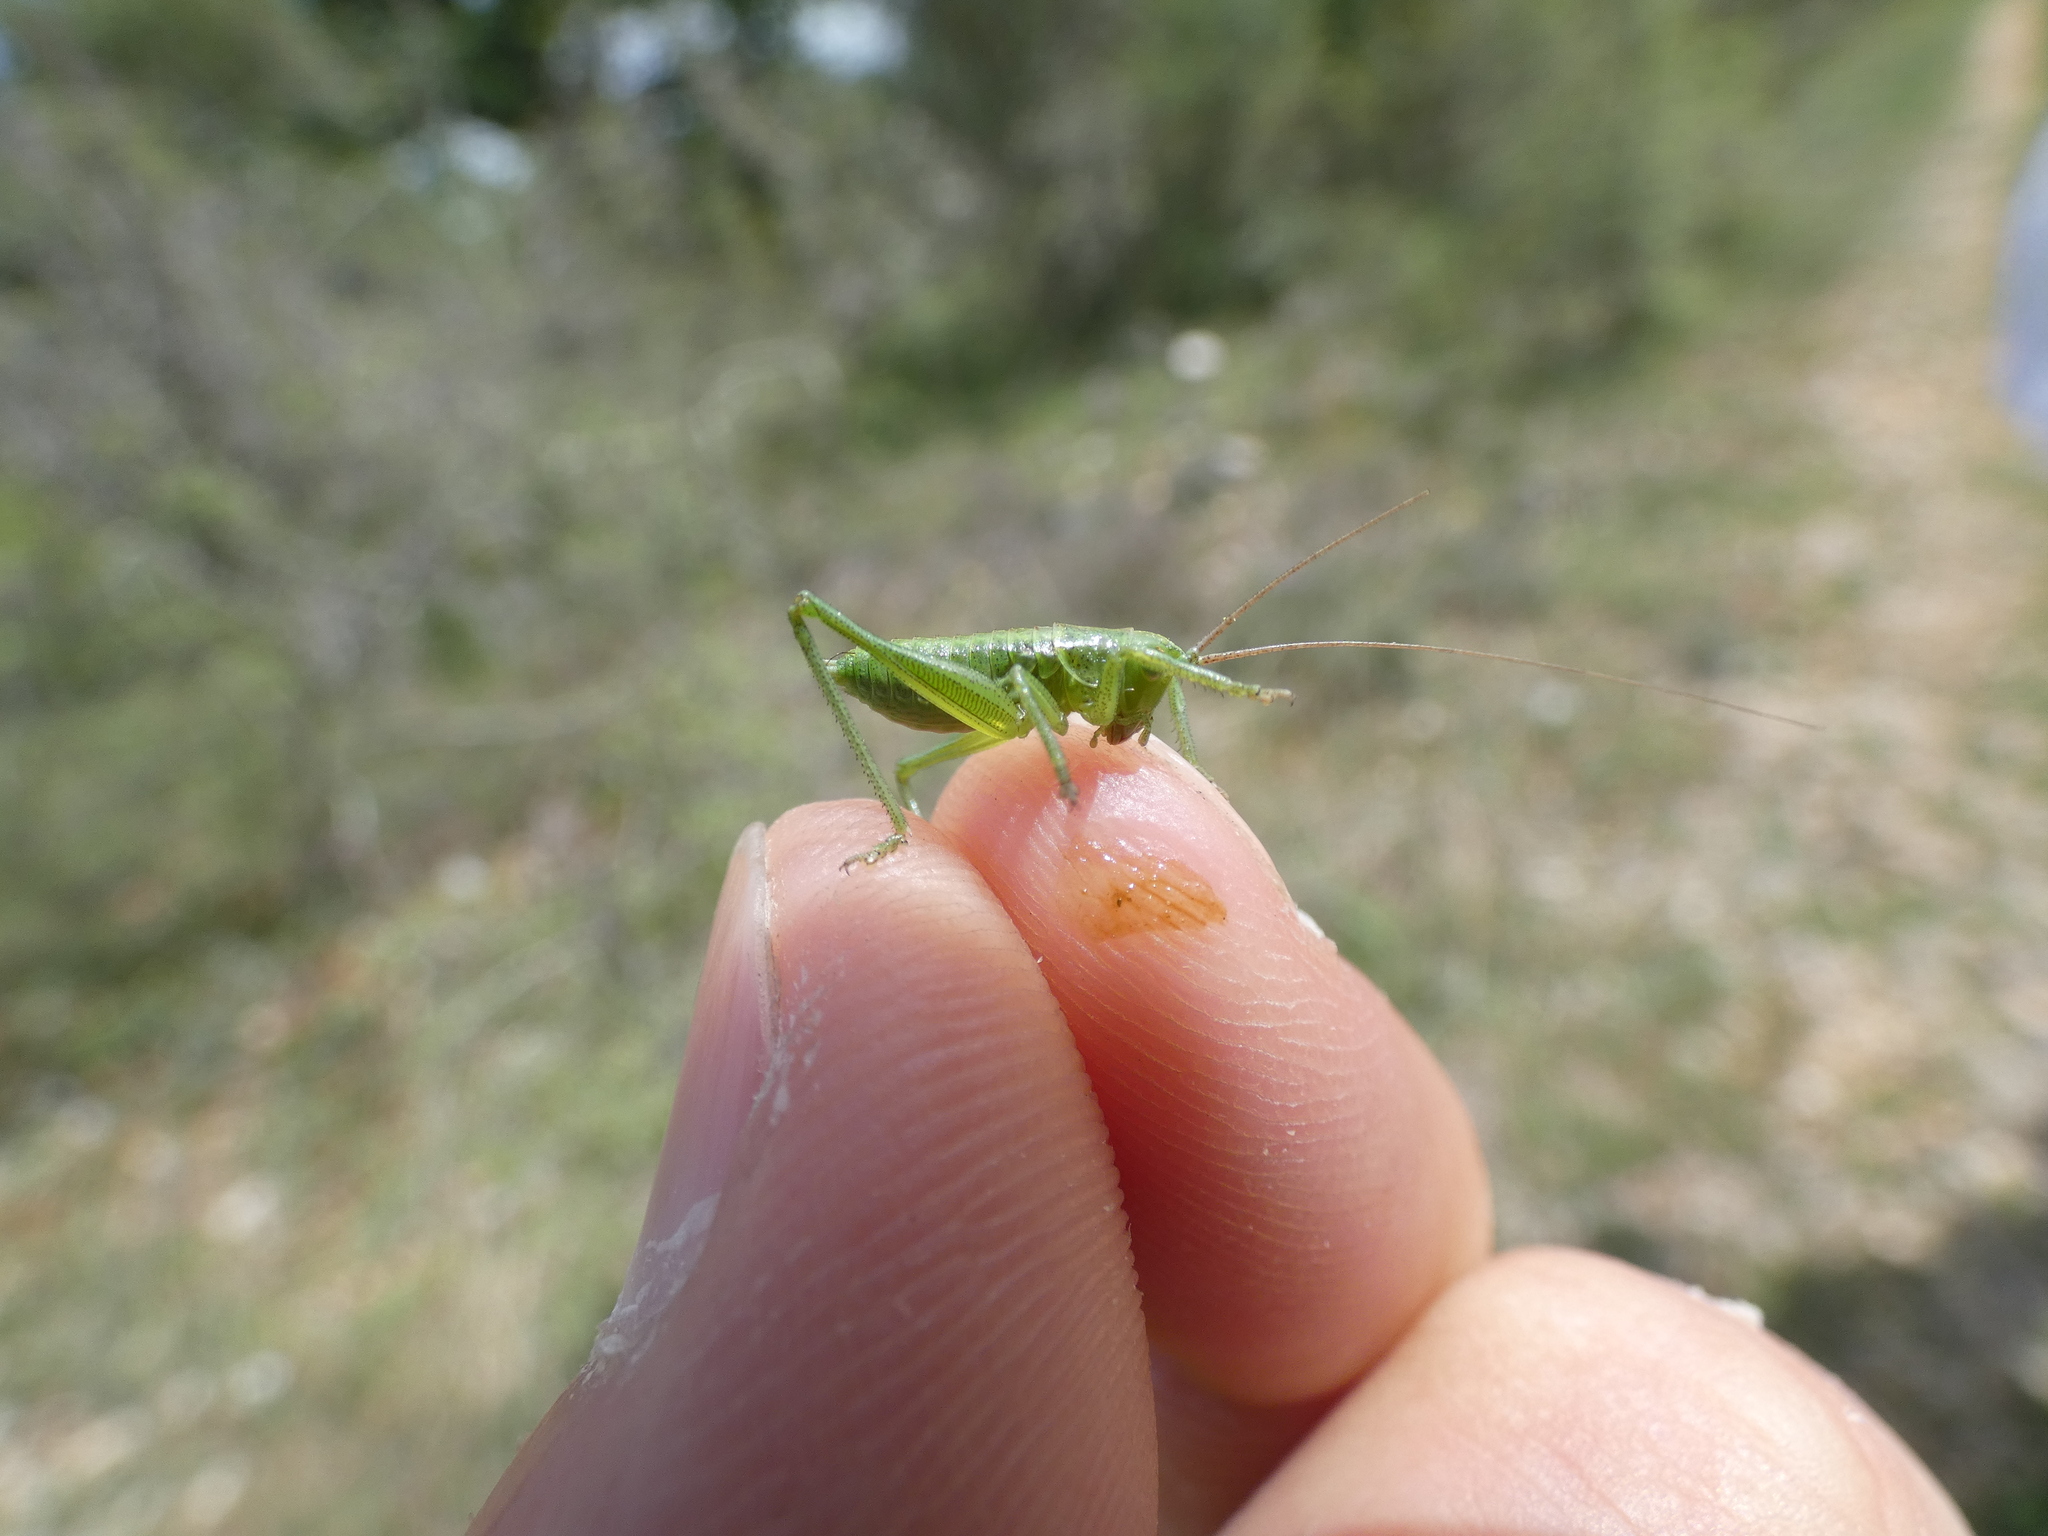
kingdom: Animalia
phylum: Arthropoda
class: Insecta
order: Orthoptera
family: Tettigoniidae
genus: Tettigonia
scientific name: Tettigonia viridissima
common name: Great green bush-cricket
